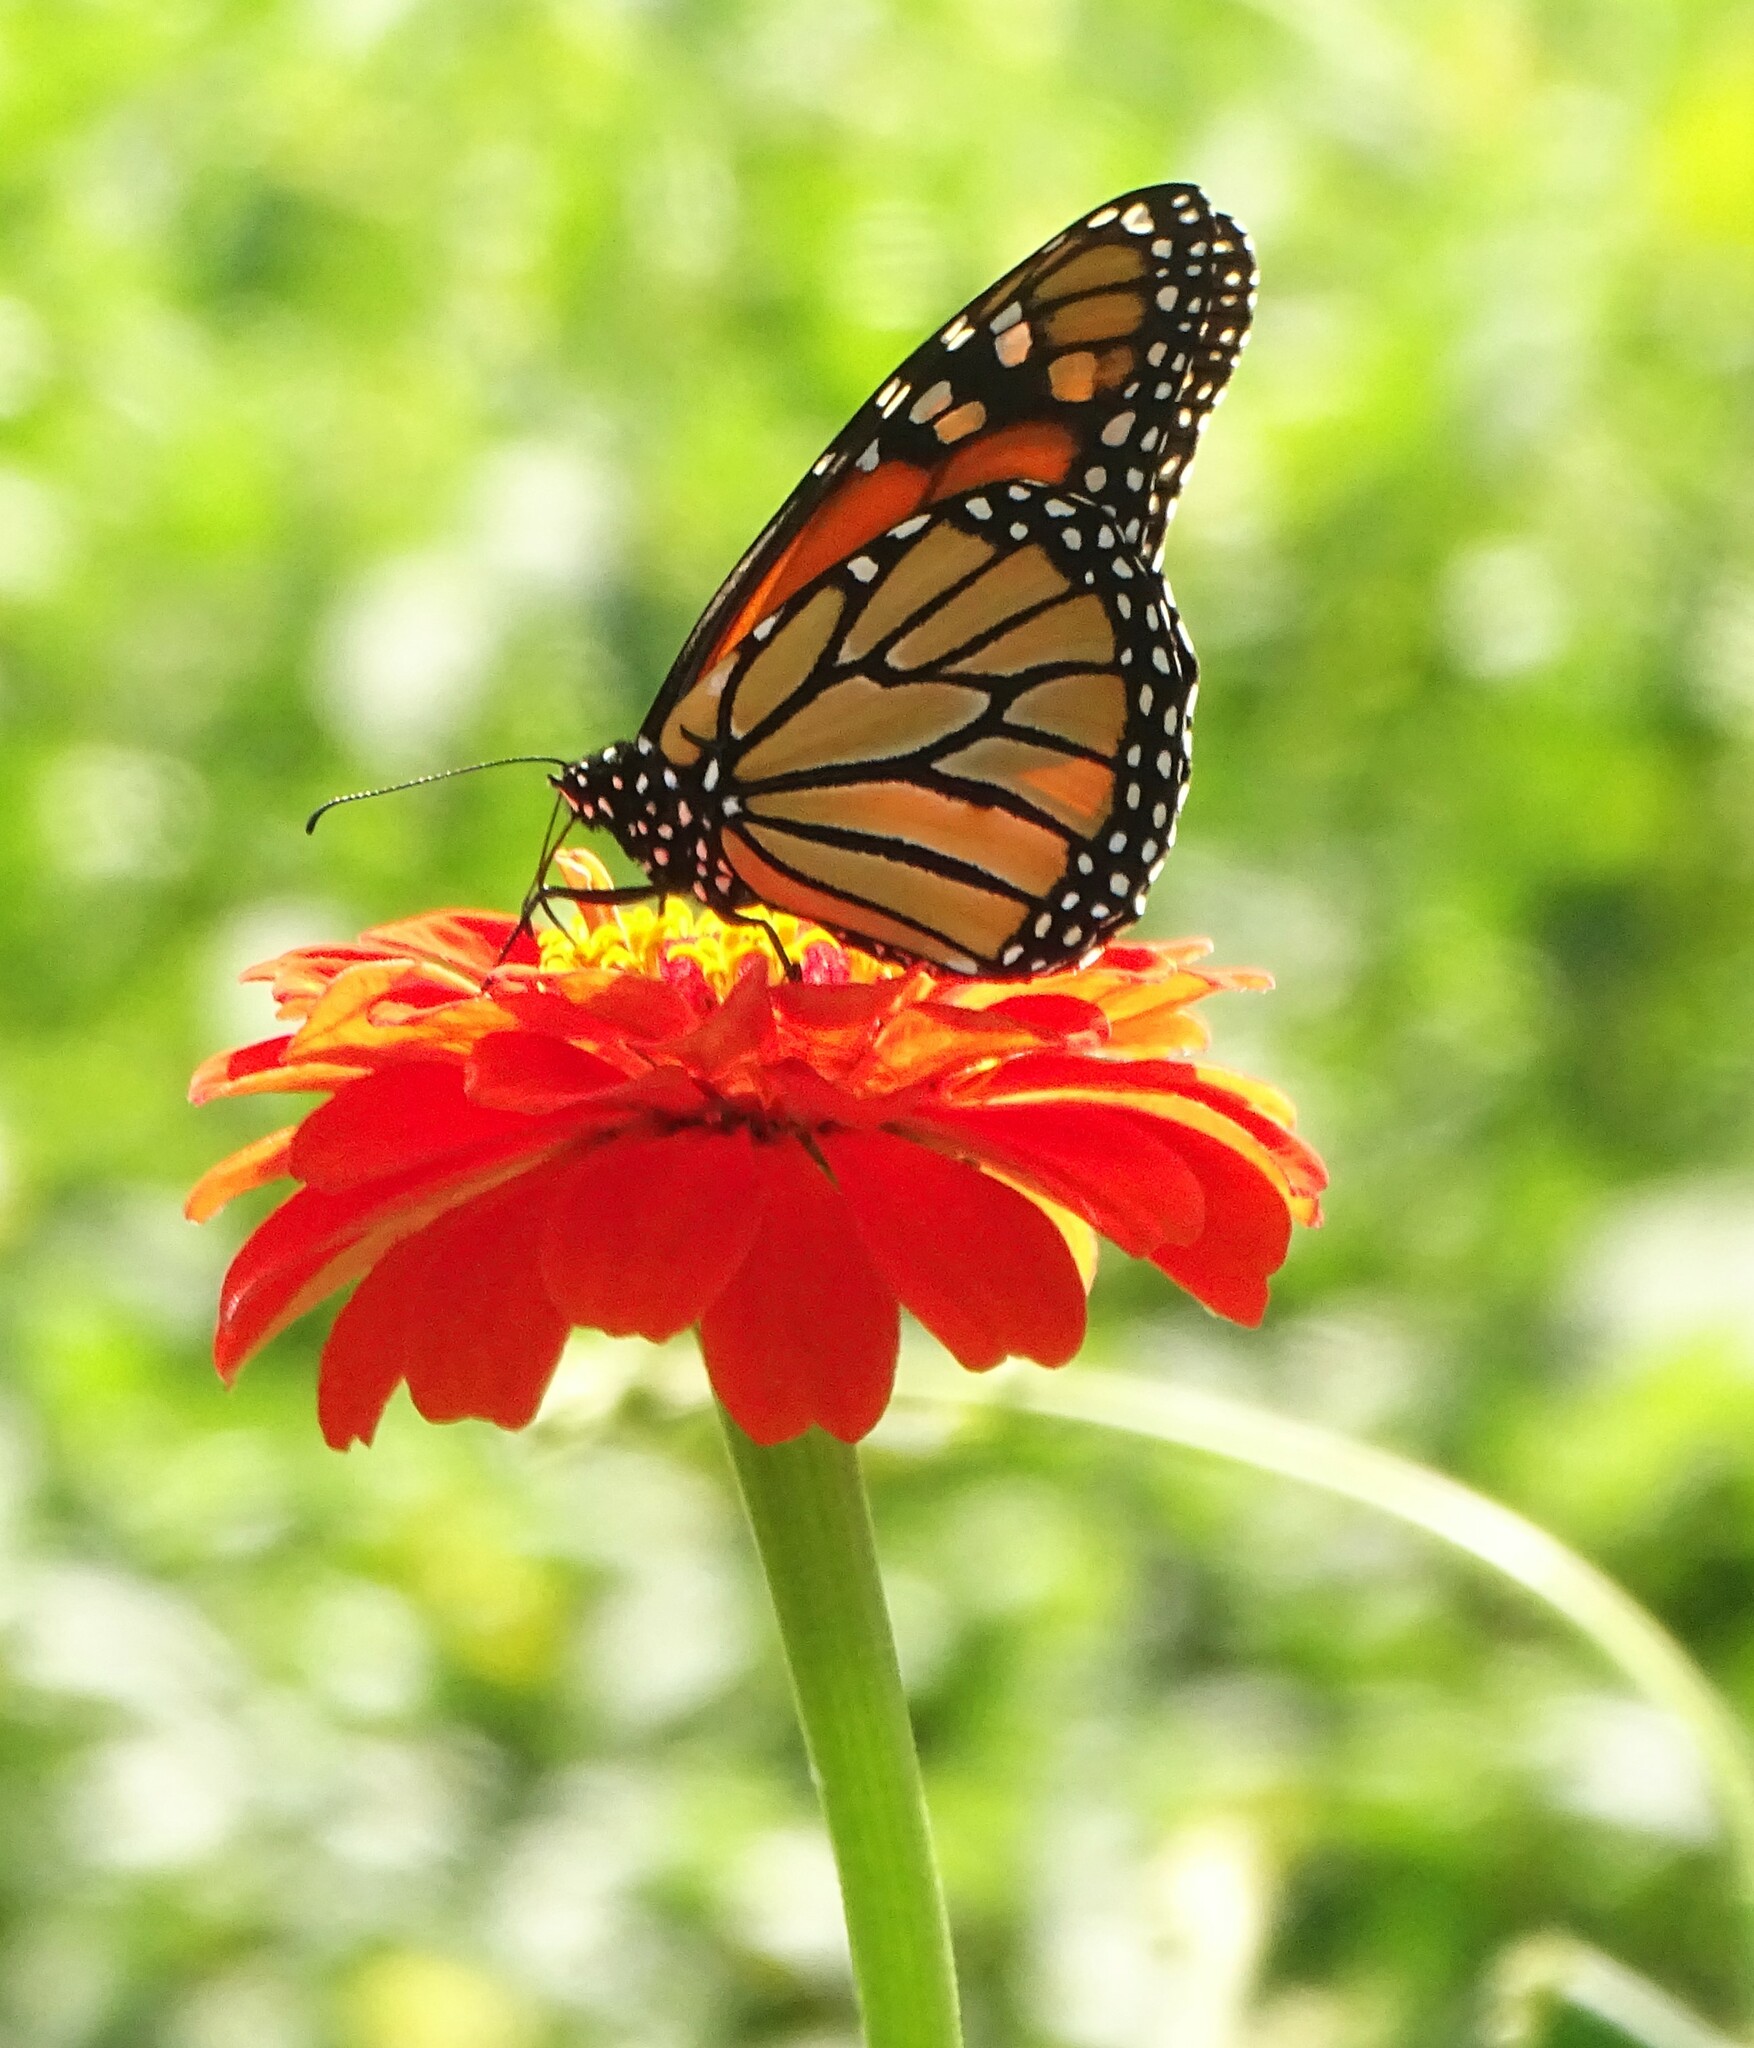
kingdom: Animalia
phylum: Arthropoda
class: Insecta
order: Lepidoptera
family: Nymphalidae
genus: Danaus
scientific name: Danaus plexippus
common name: Monarch
